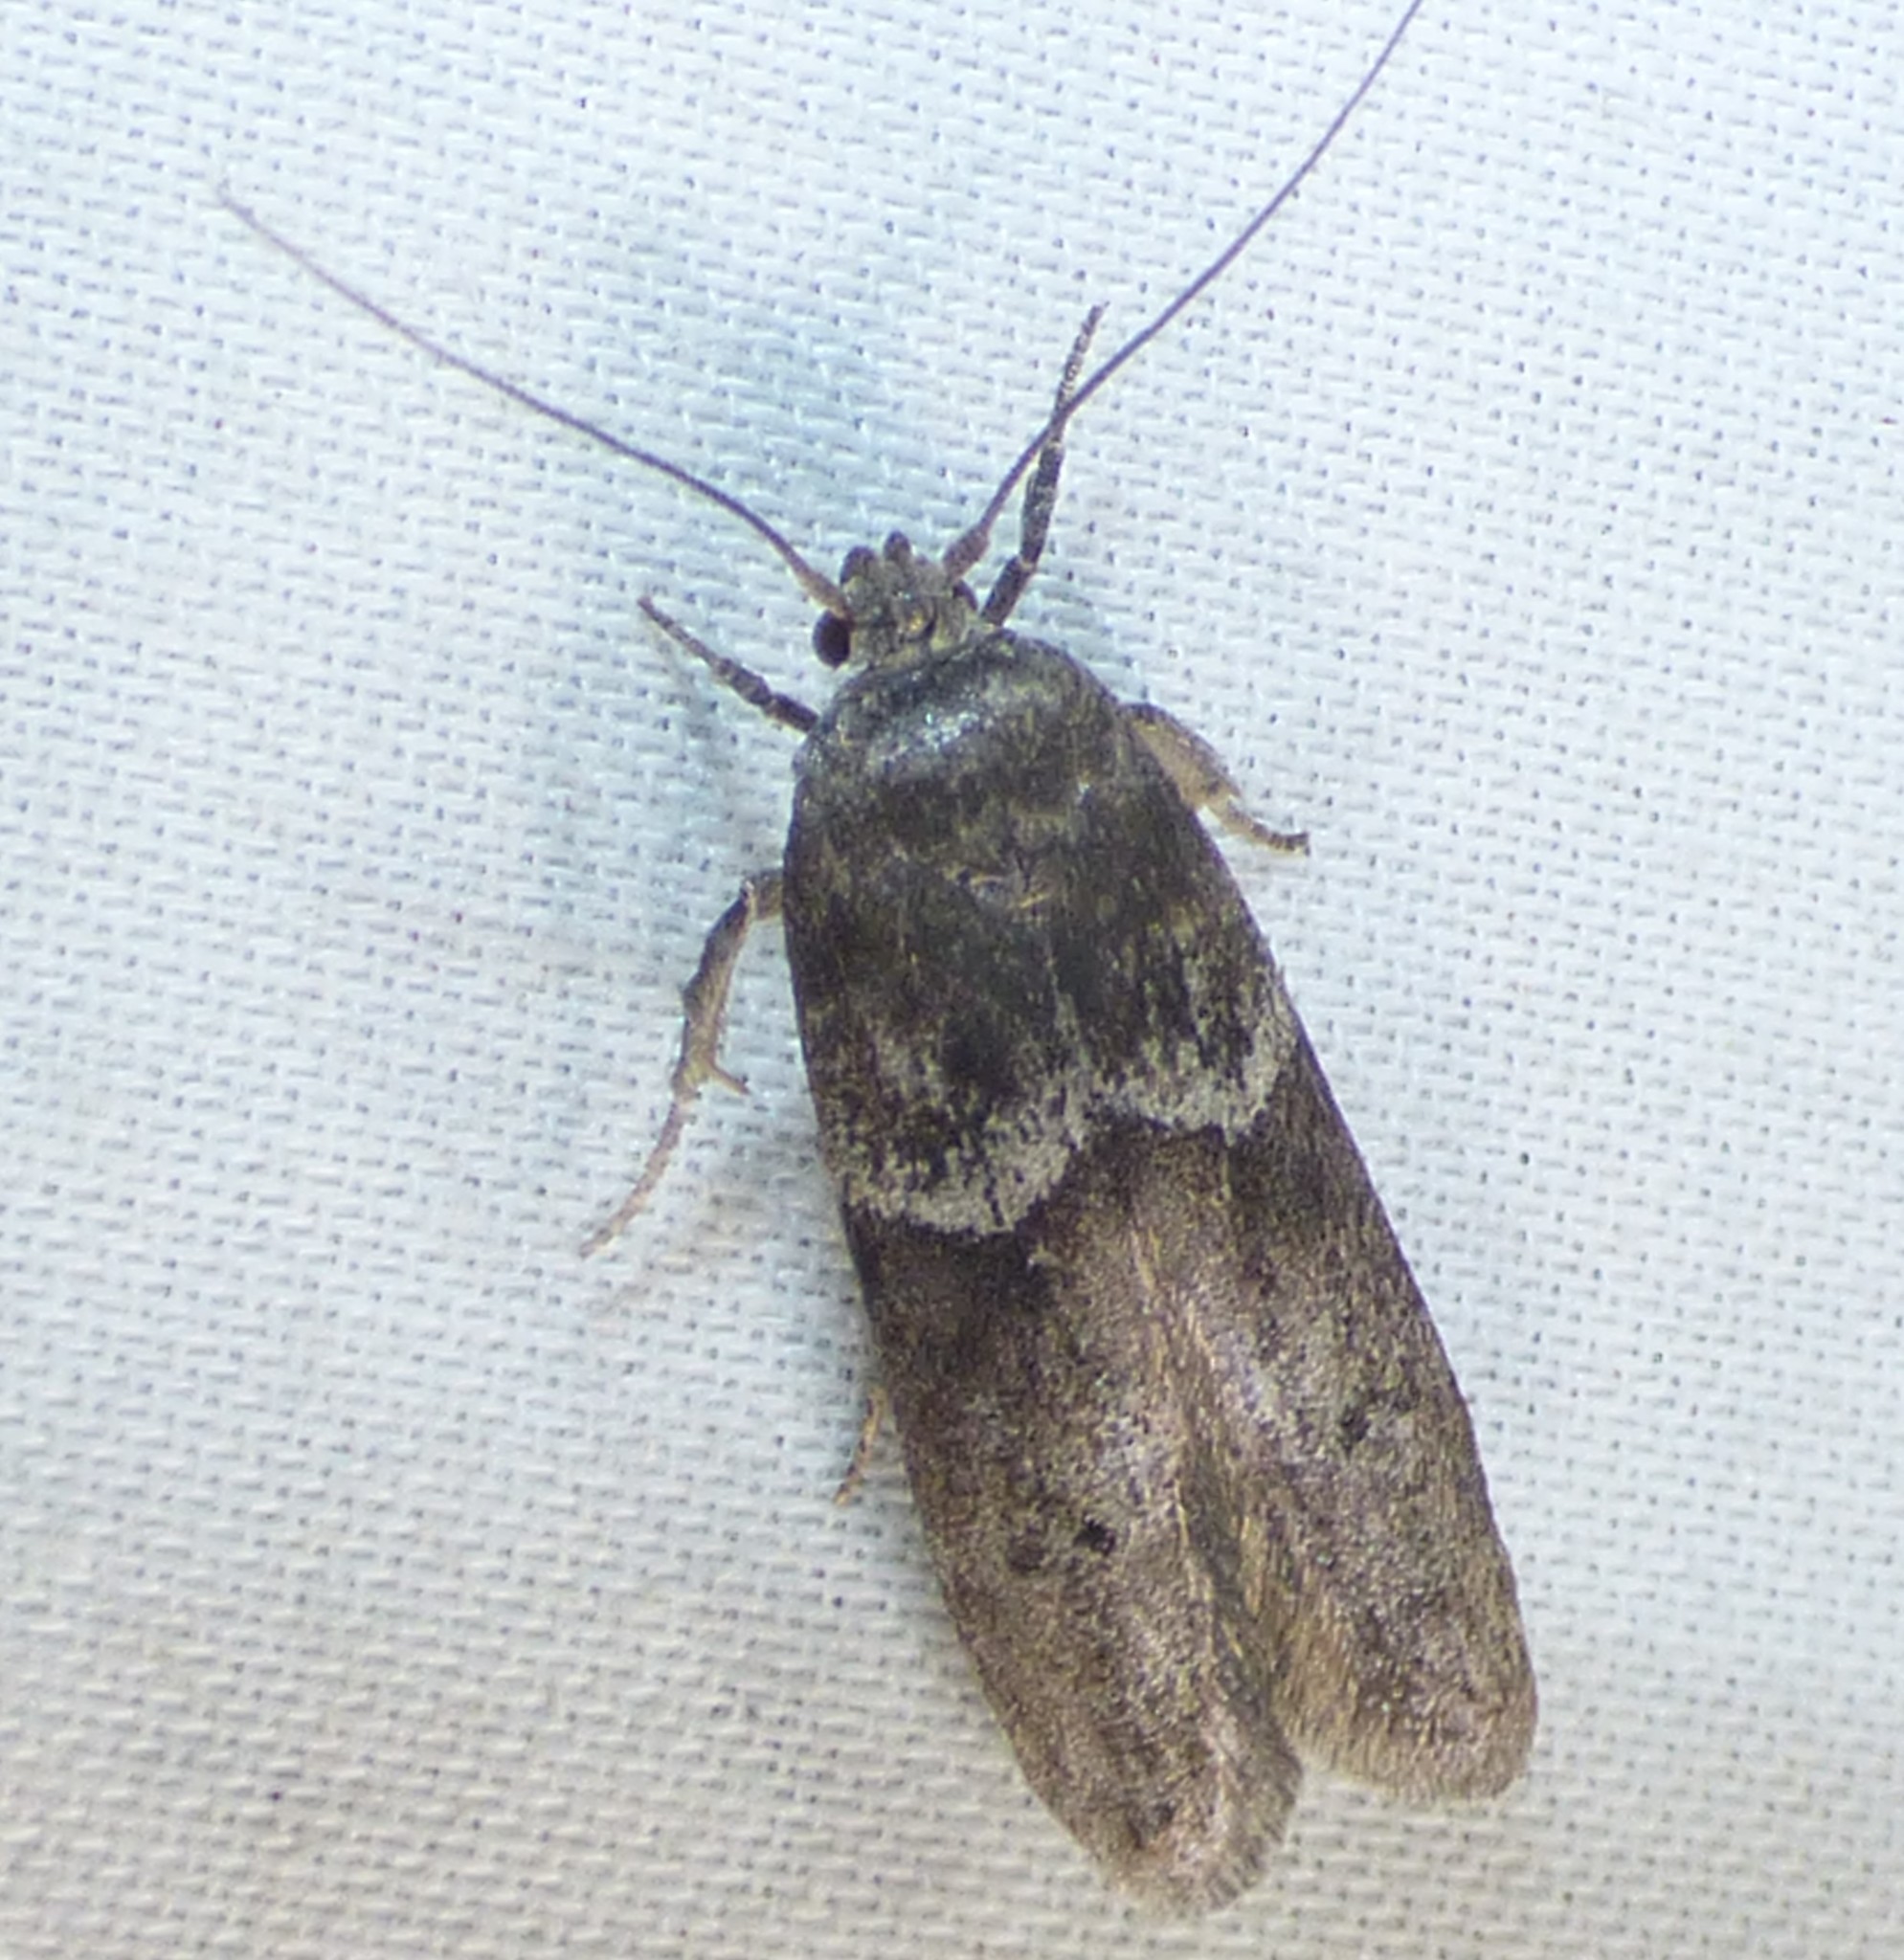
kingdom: Animalia
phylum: Arthropoda
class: Insecta
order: Lepidoptera
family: Blastobasidae
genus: Blastobasis
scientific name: Blastobasis glandulella
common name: Acorn moth
